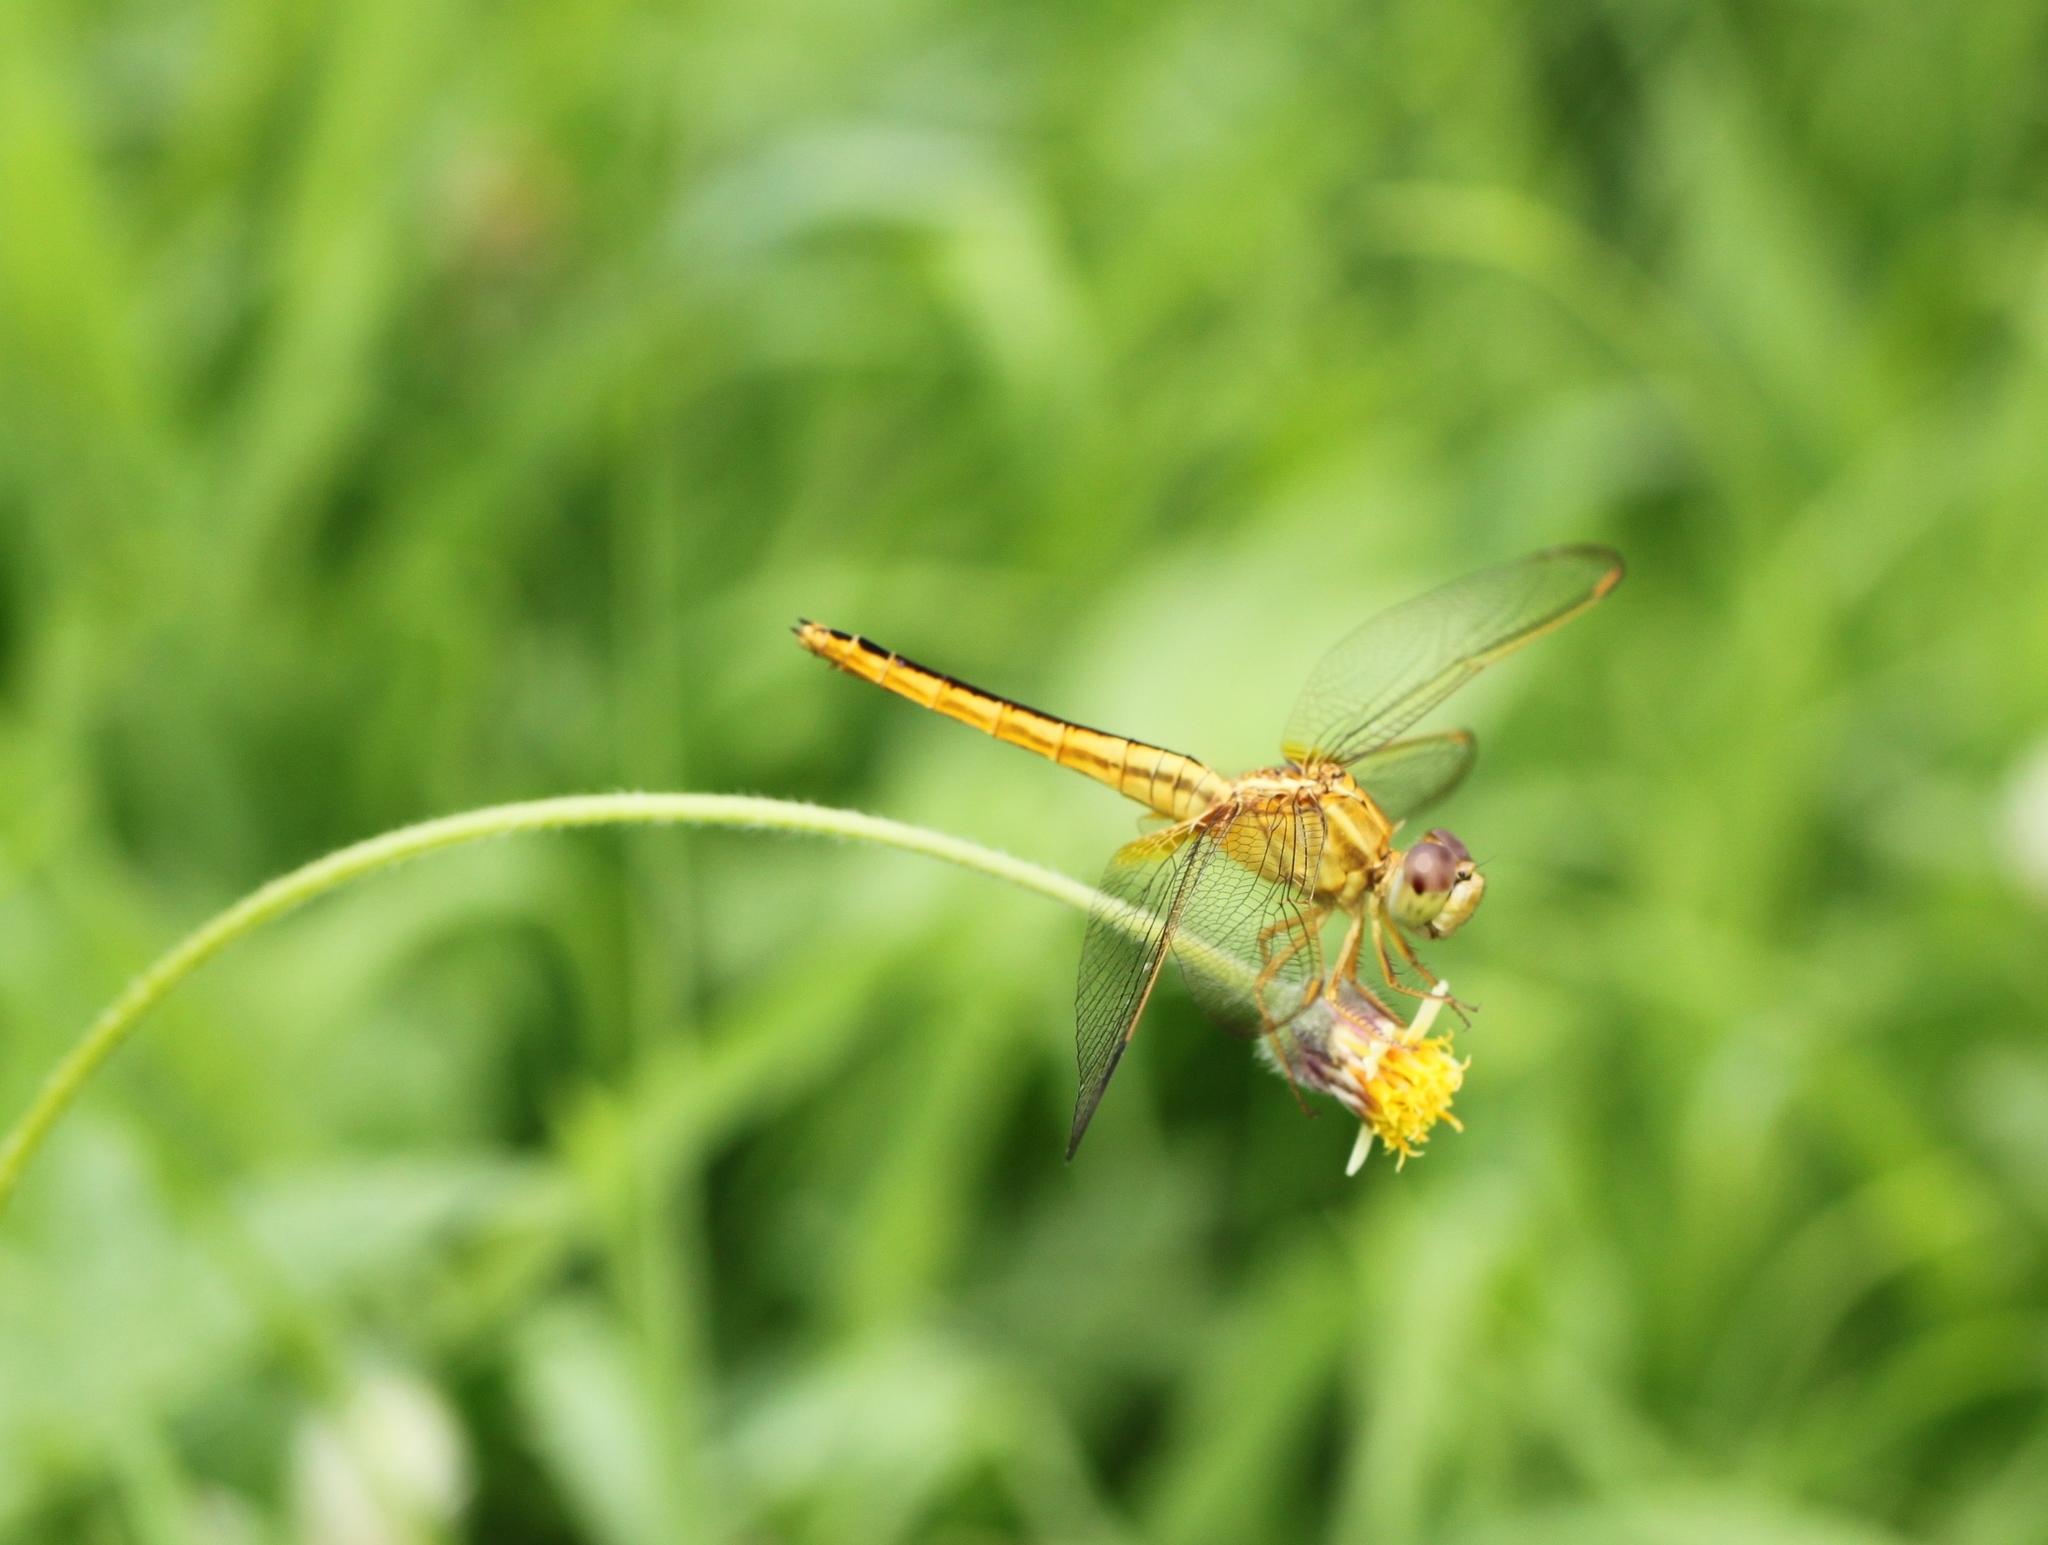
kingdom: Animalia
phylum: Arthropoda
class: Insecta
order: Odonata
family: Libellulidae
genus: Crocothemis
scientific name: Crocothemis servilia
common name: Scarlet skimmer
